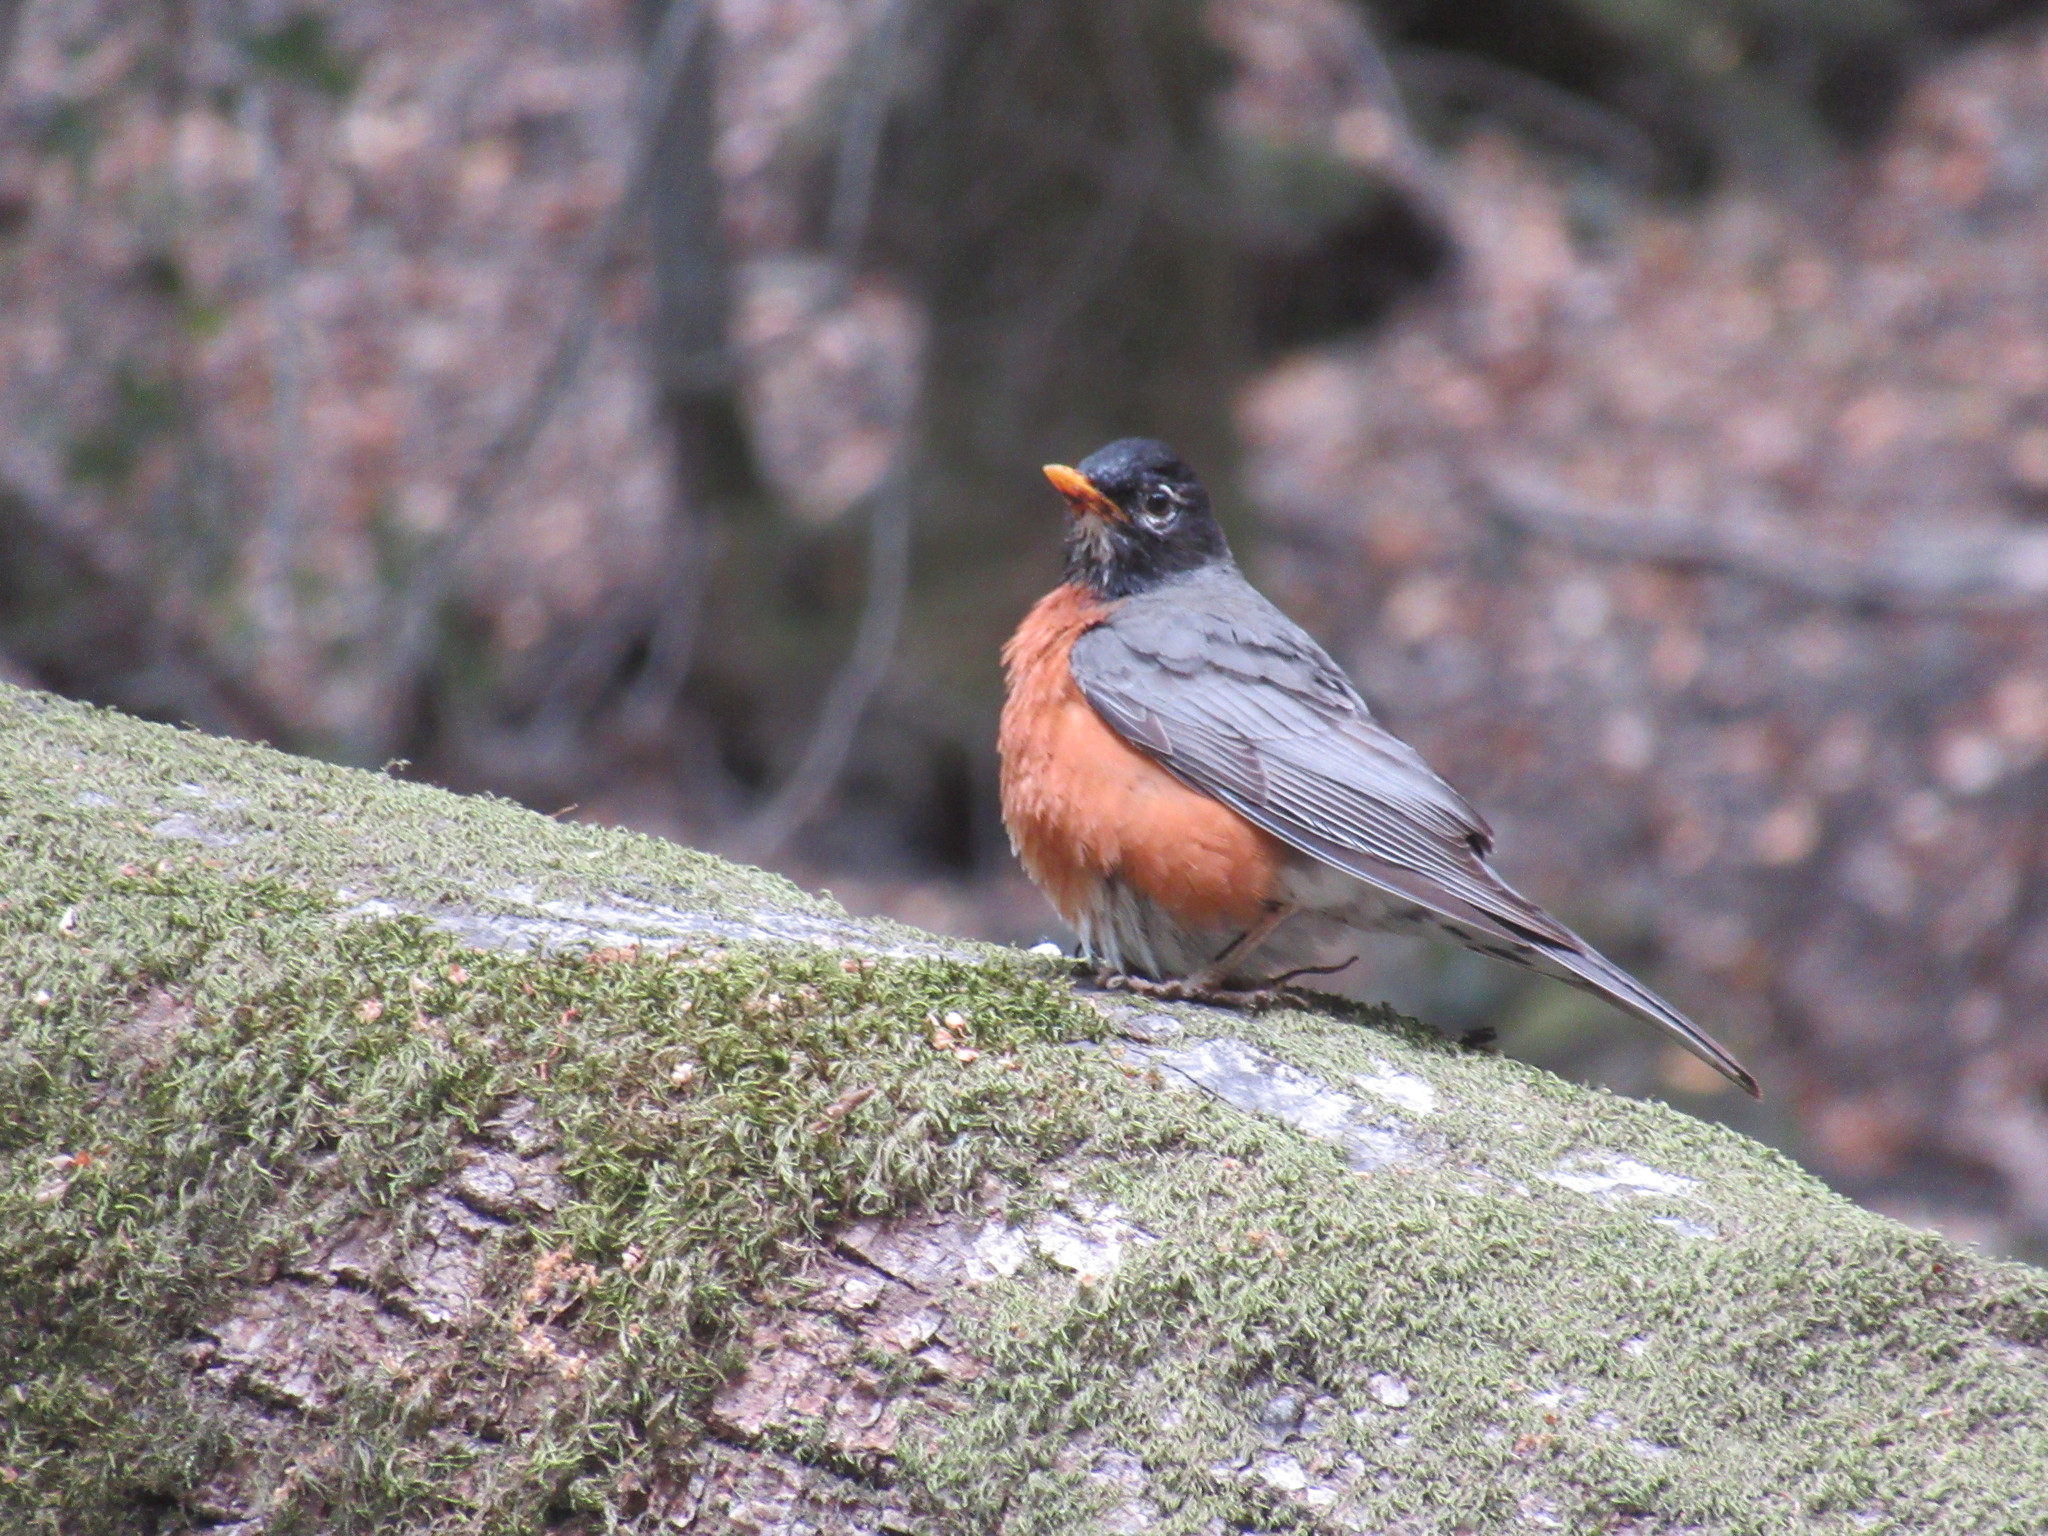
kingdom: Animalia
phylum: Chordata
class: Aves
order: Passeriformes
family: Turdidae
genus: Turdus
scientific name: Turdus migratorius
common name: American robin
